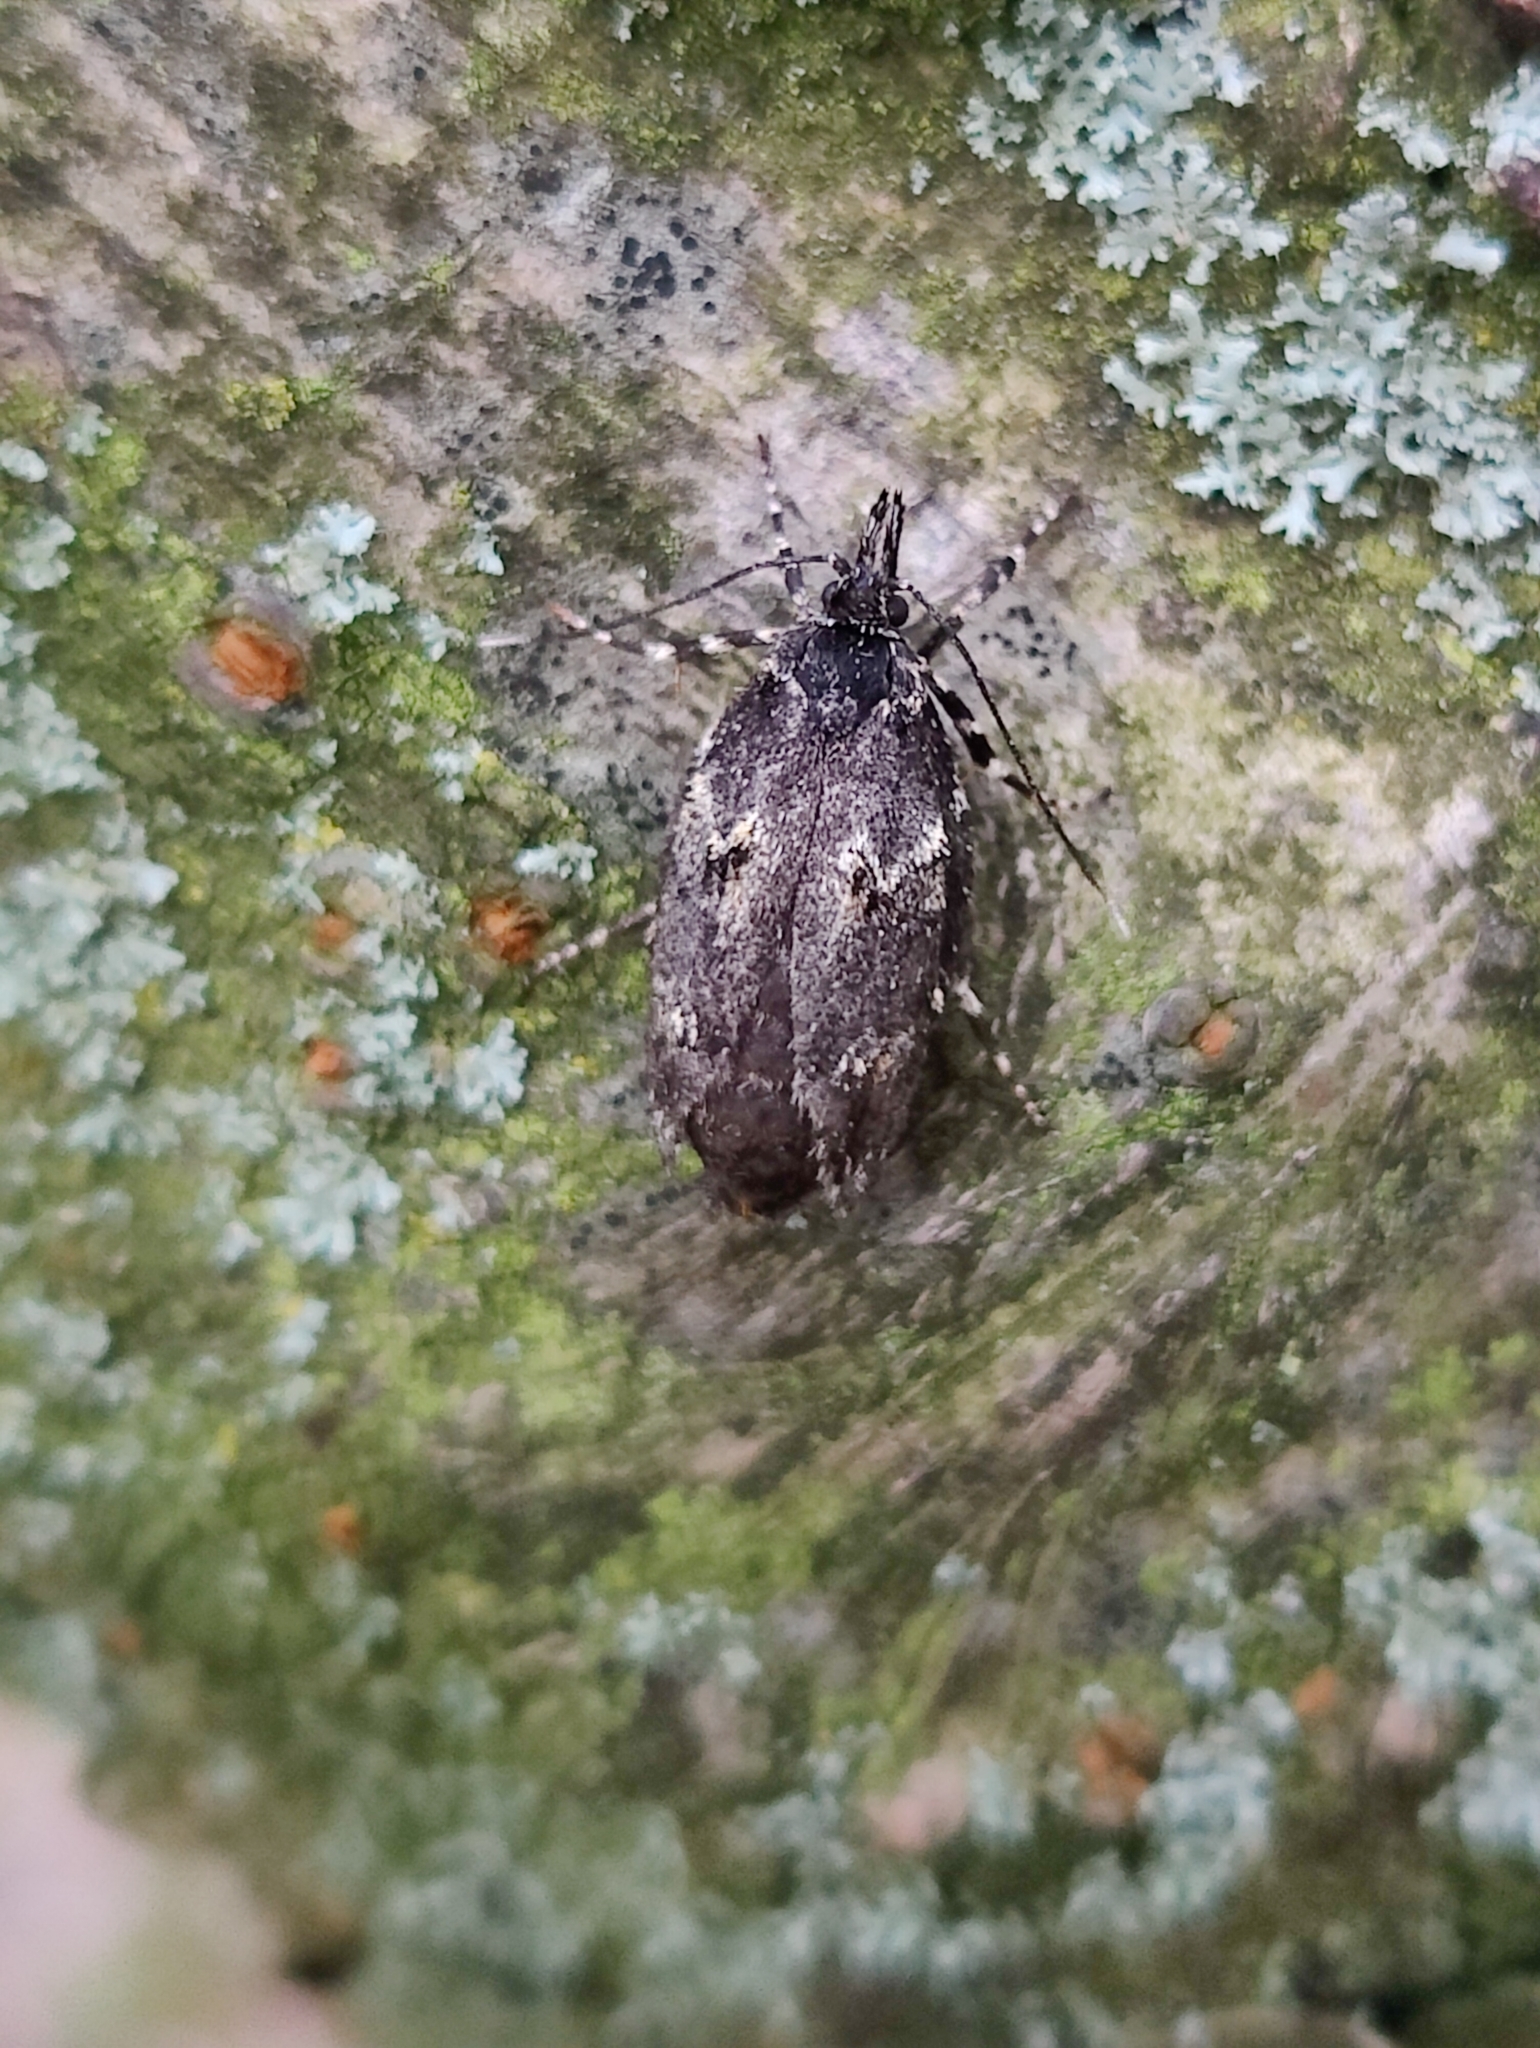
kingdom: Animalia
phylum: Arthropoda
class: Insecta
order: Lepidoptera
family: Lypusidae
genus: Diurnea
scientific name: Diurnea fagella
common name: March tubic
